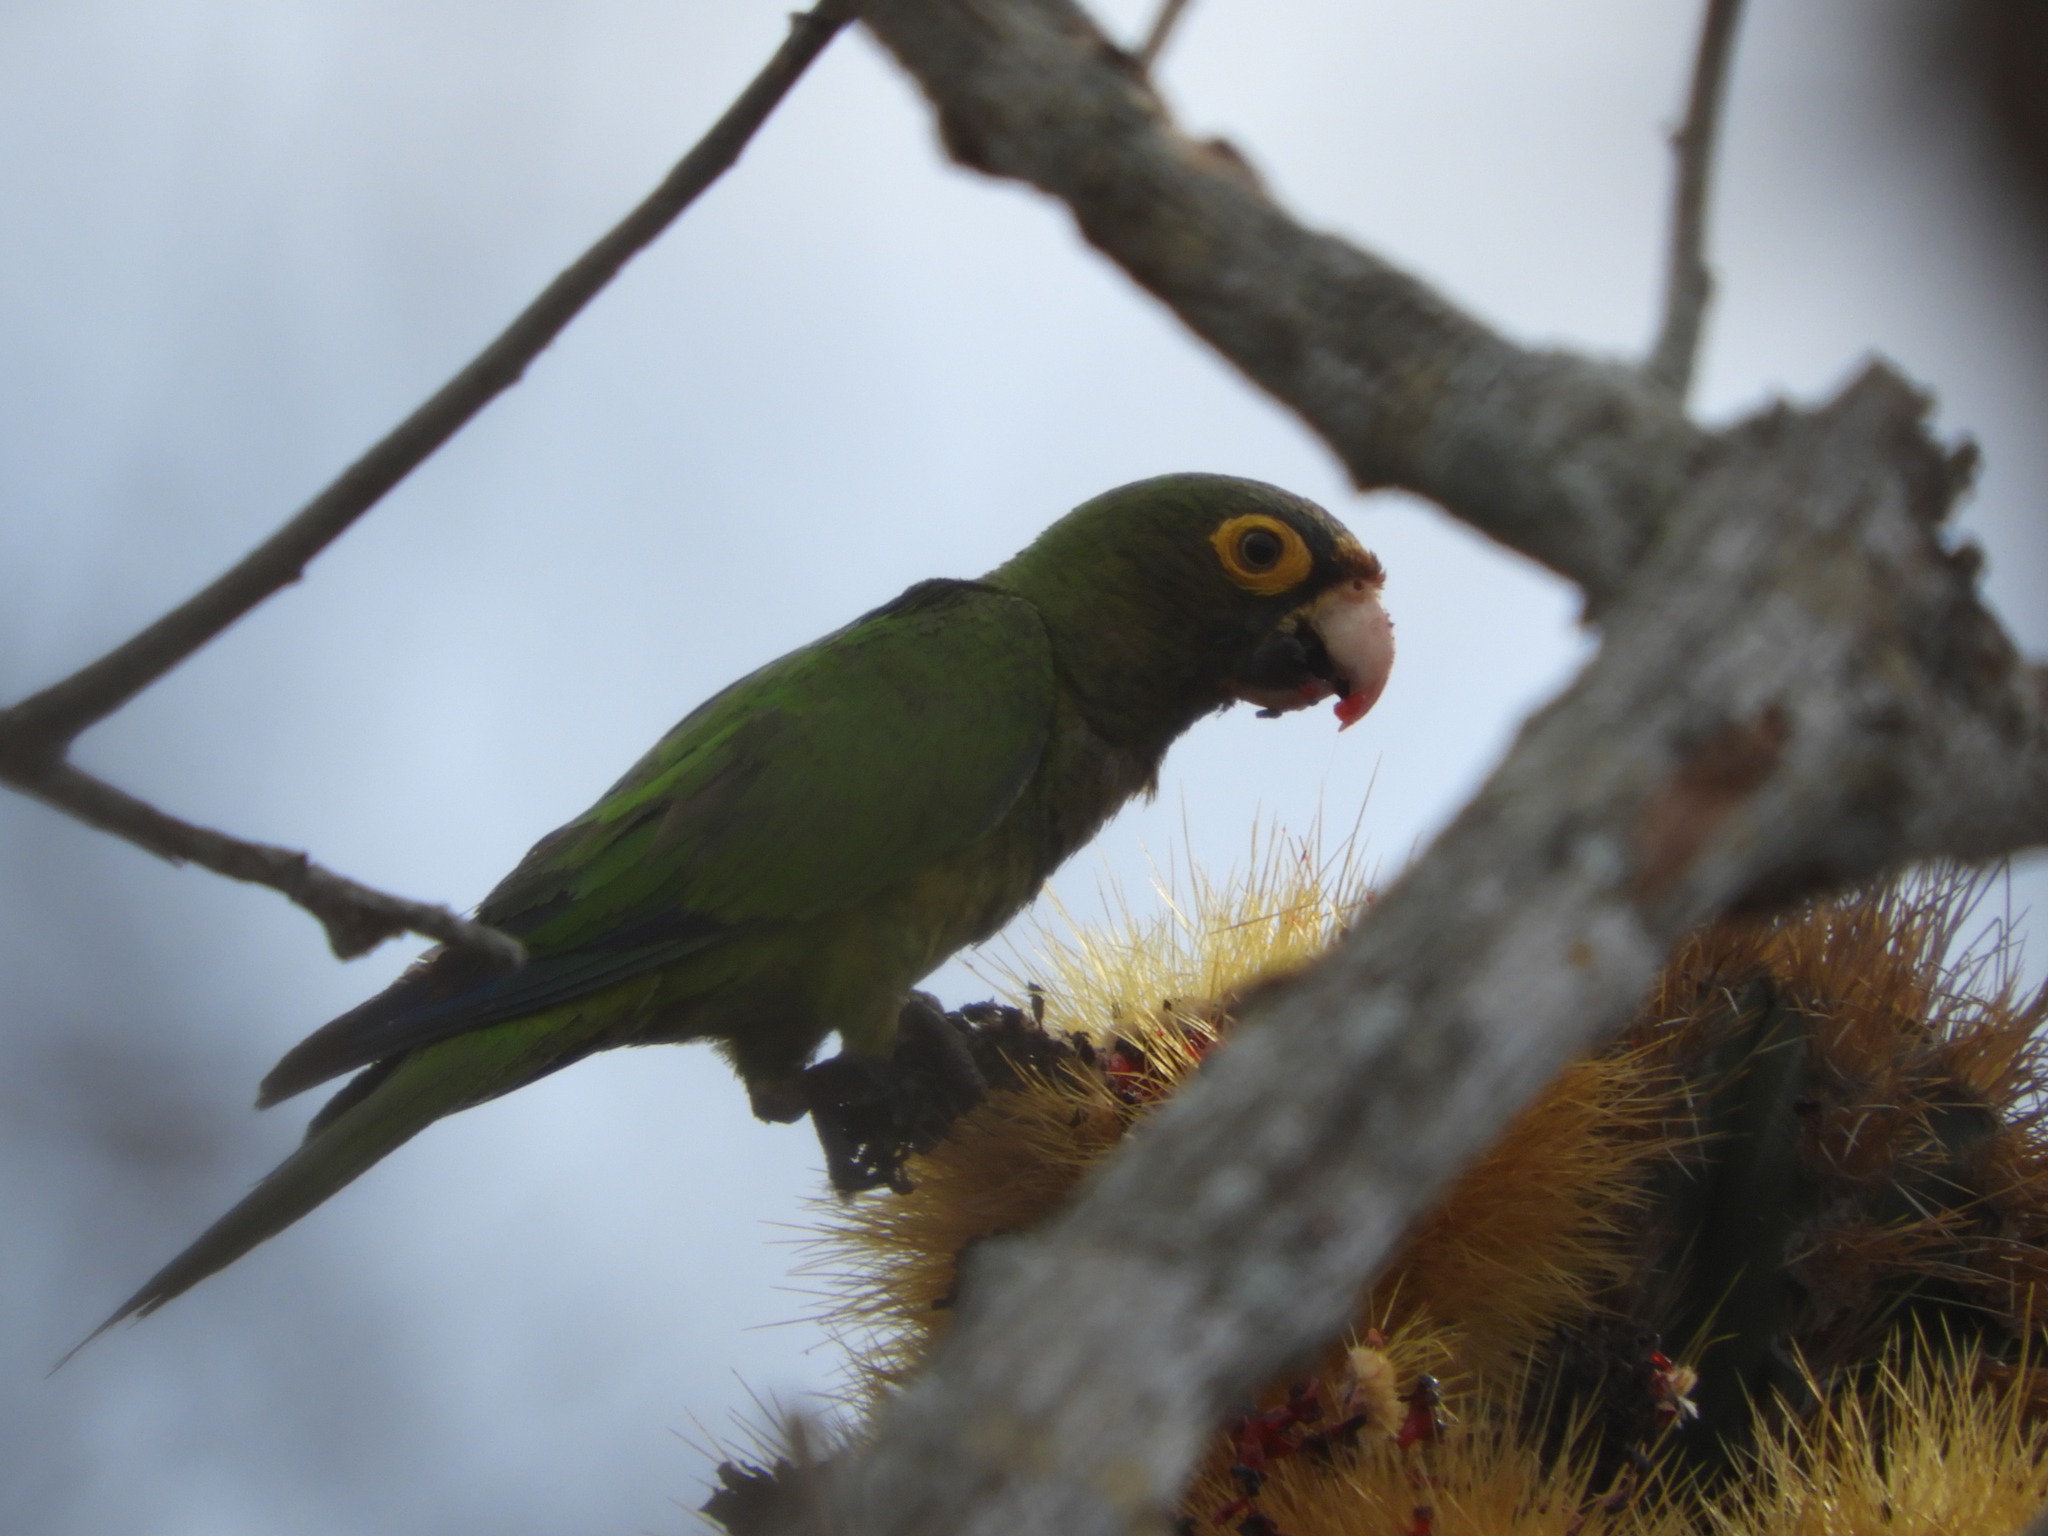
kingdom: Animalia
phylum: Chordata
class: Aves
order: Psittaciformes
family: Psittacidae
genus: Aratinga
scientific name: Aratinga canicularis
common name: Orange-fronted parakeet
